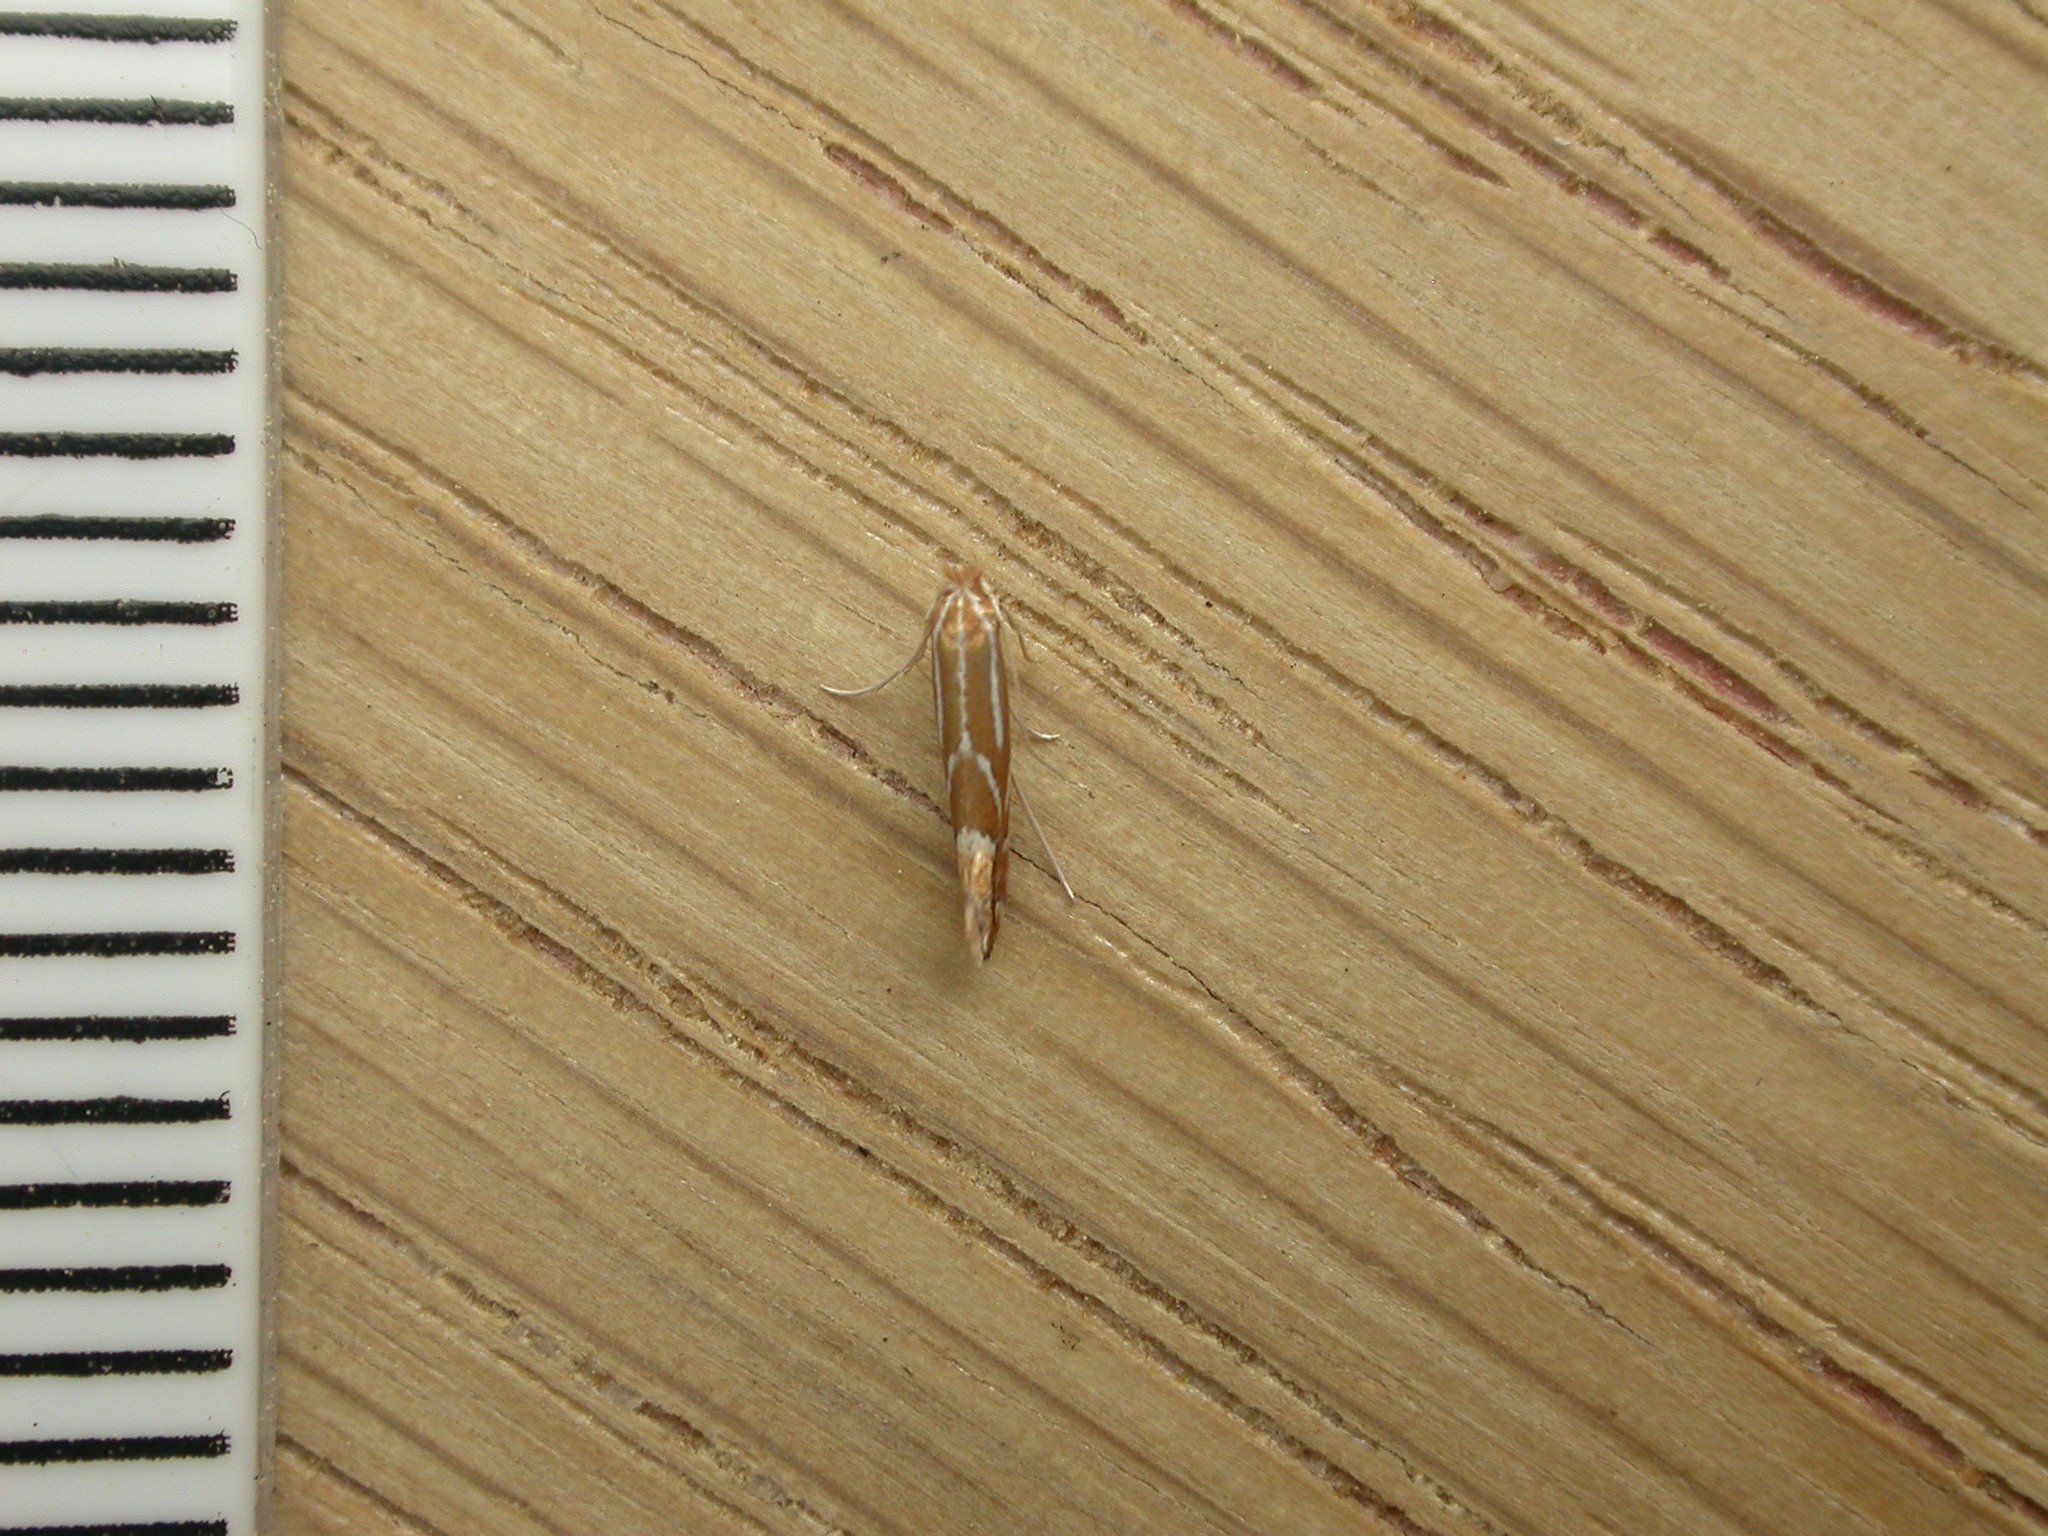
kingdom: Animalia
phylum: Arthropoda
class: Insecta
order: Lepidoptera
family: Gracillariidae
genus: Phyllonorycter
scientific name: Phyllonorycter leucographella
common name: Firethorn leaf-miner
